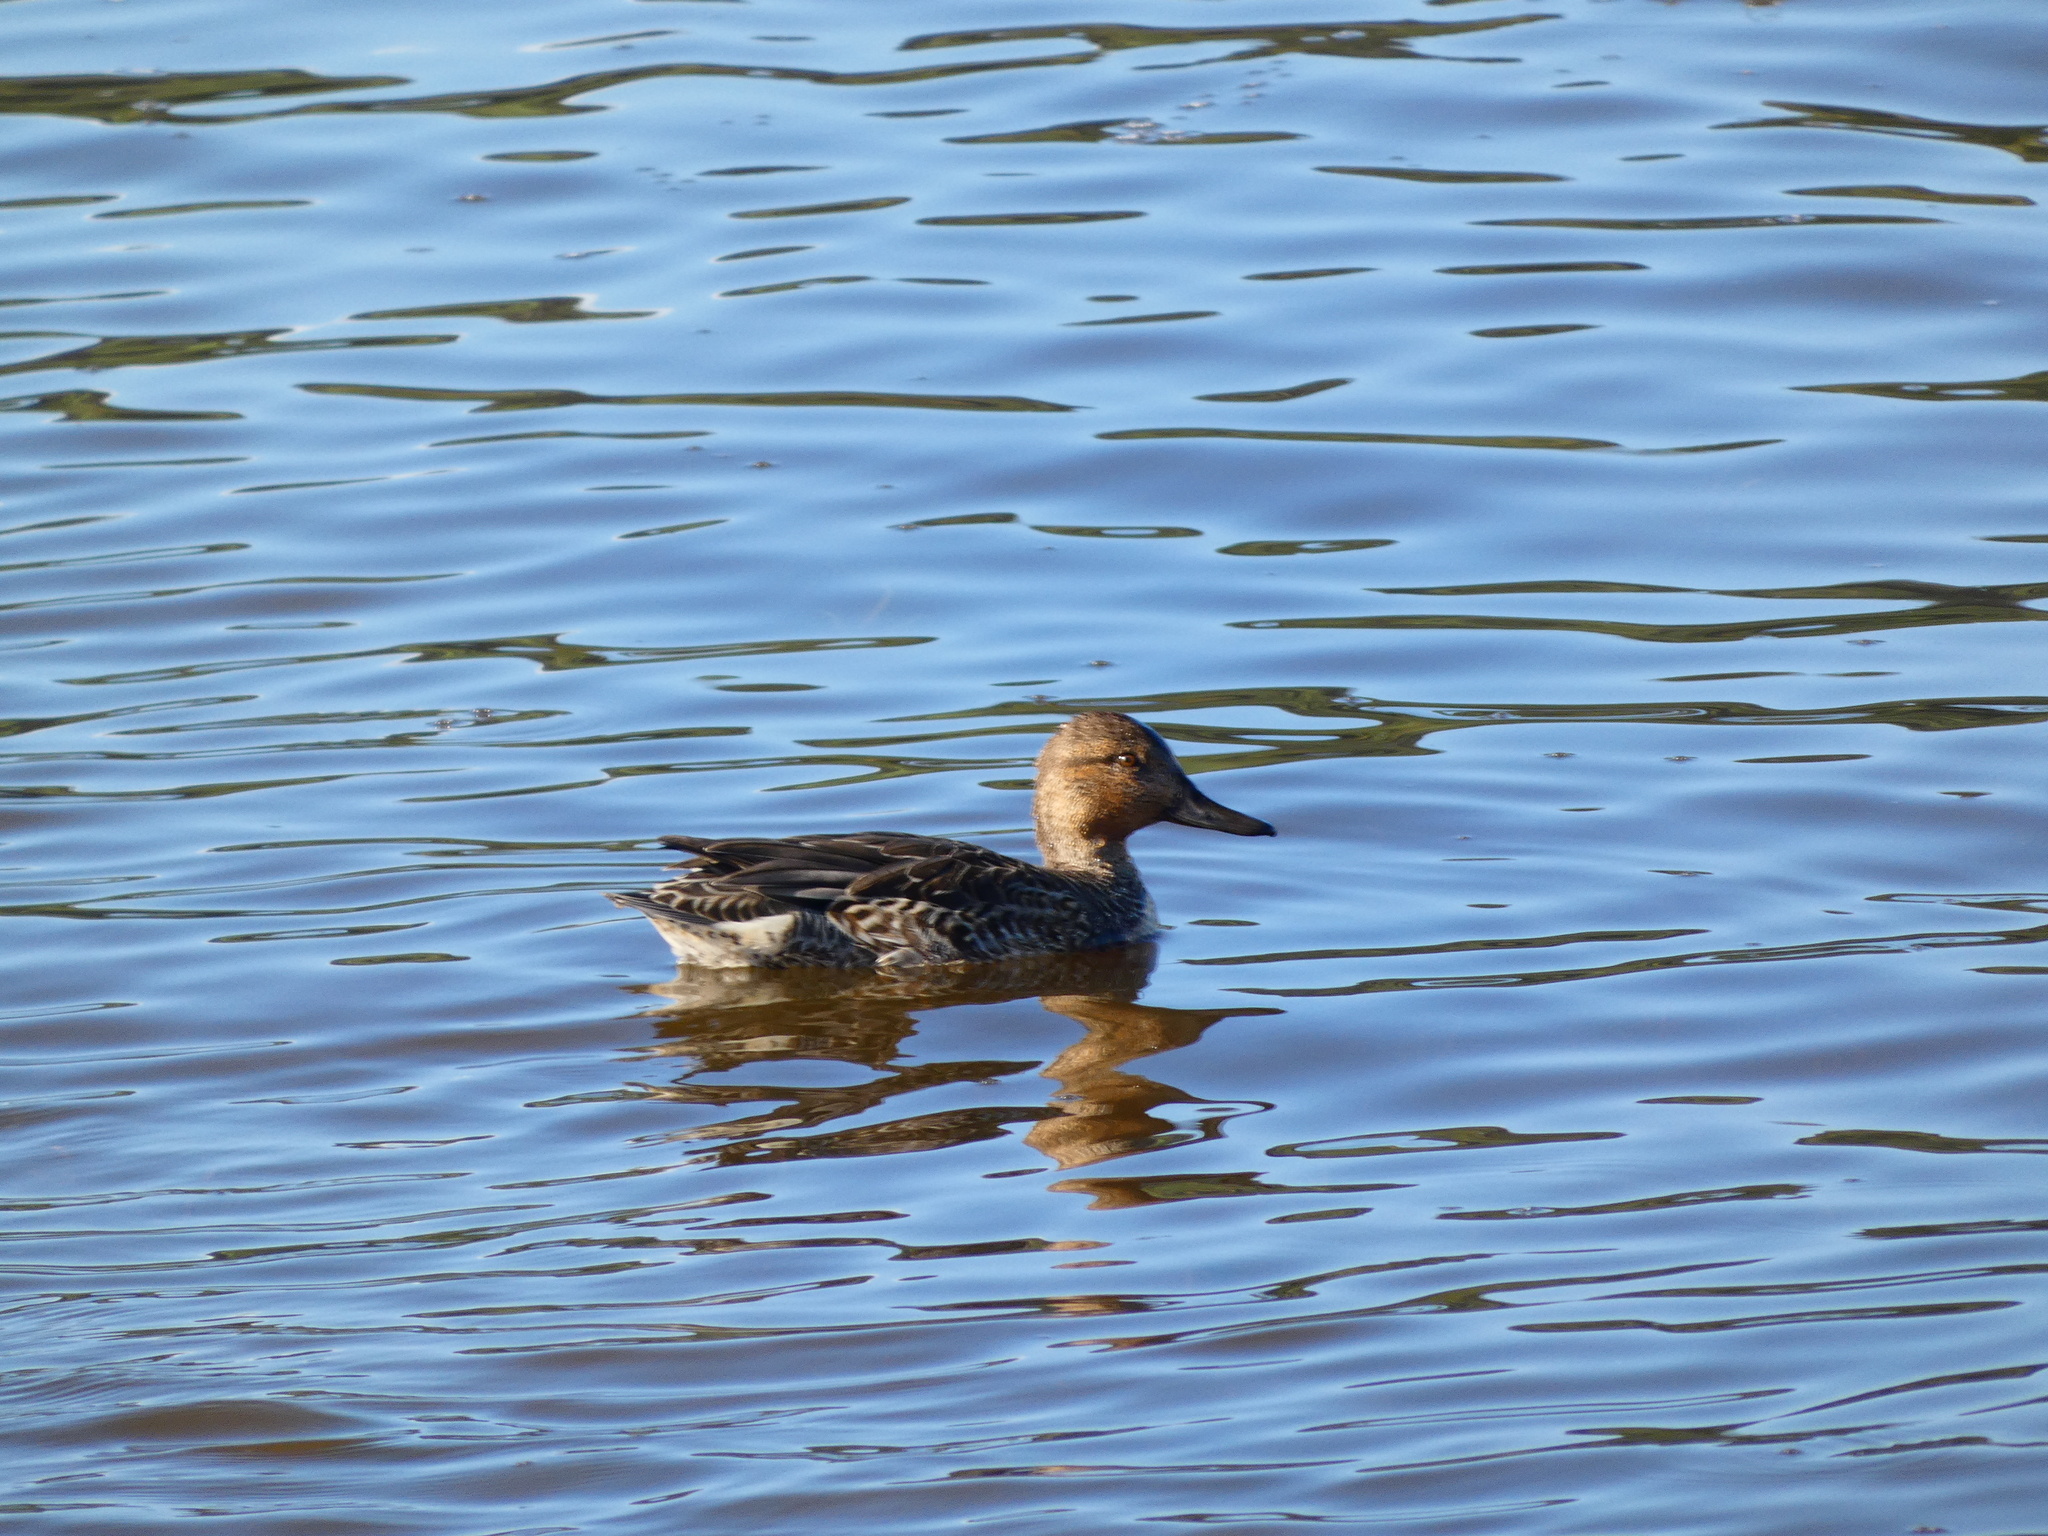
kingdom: Animalia
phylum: Chordata
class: Aves
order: Anseriformes
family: Anatidae
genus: Anas
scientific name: Anas crecca
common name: Eurasian teal
